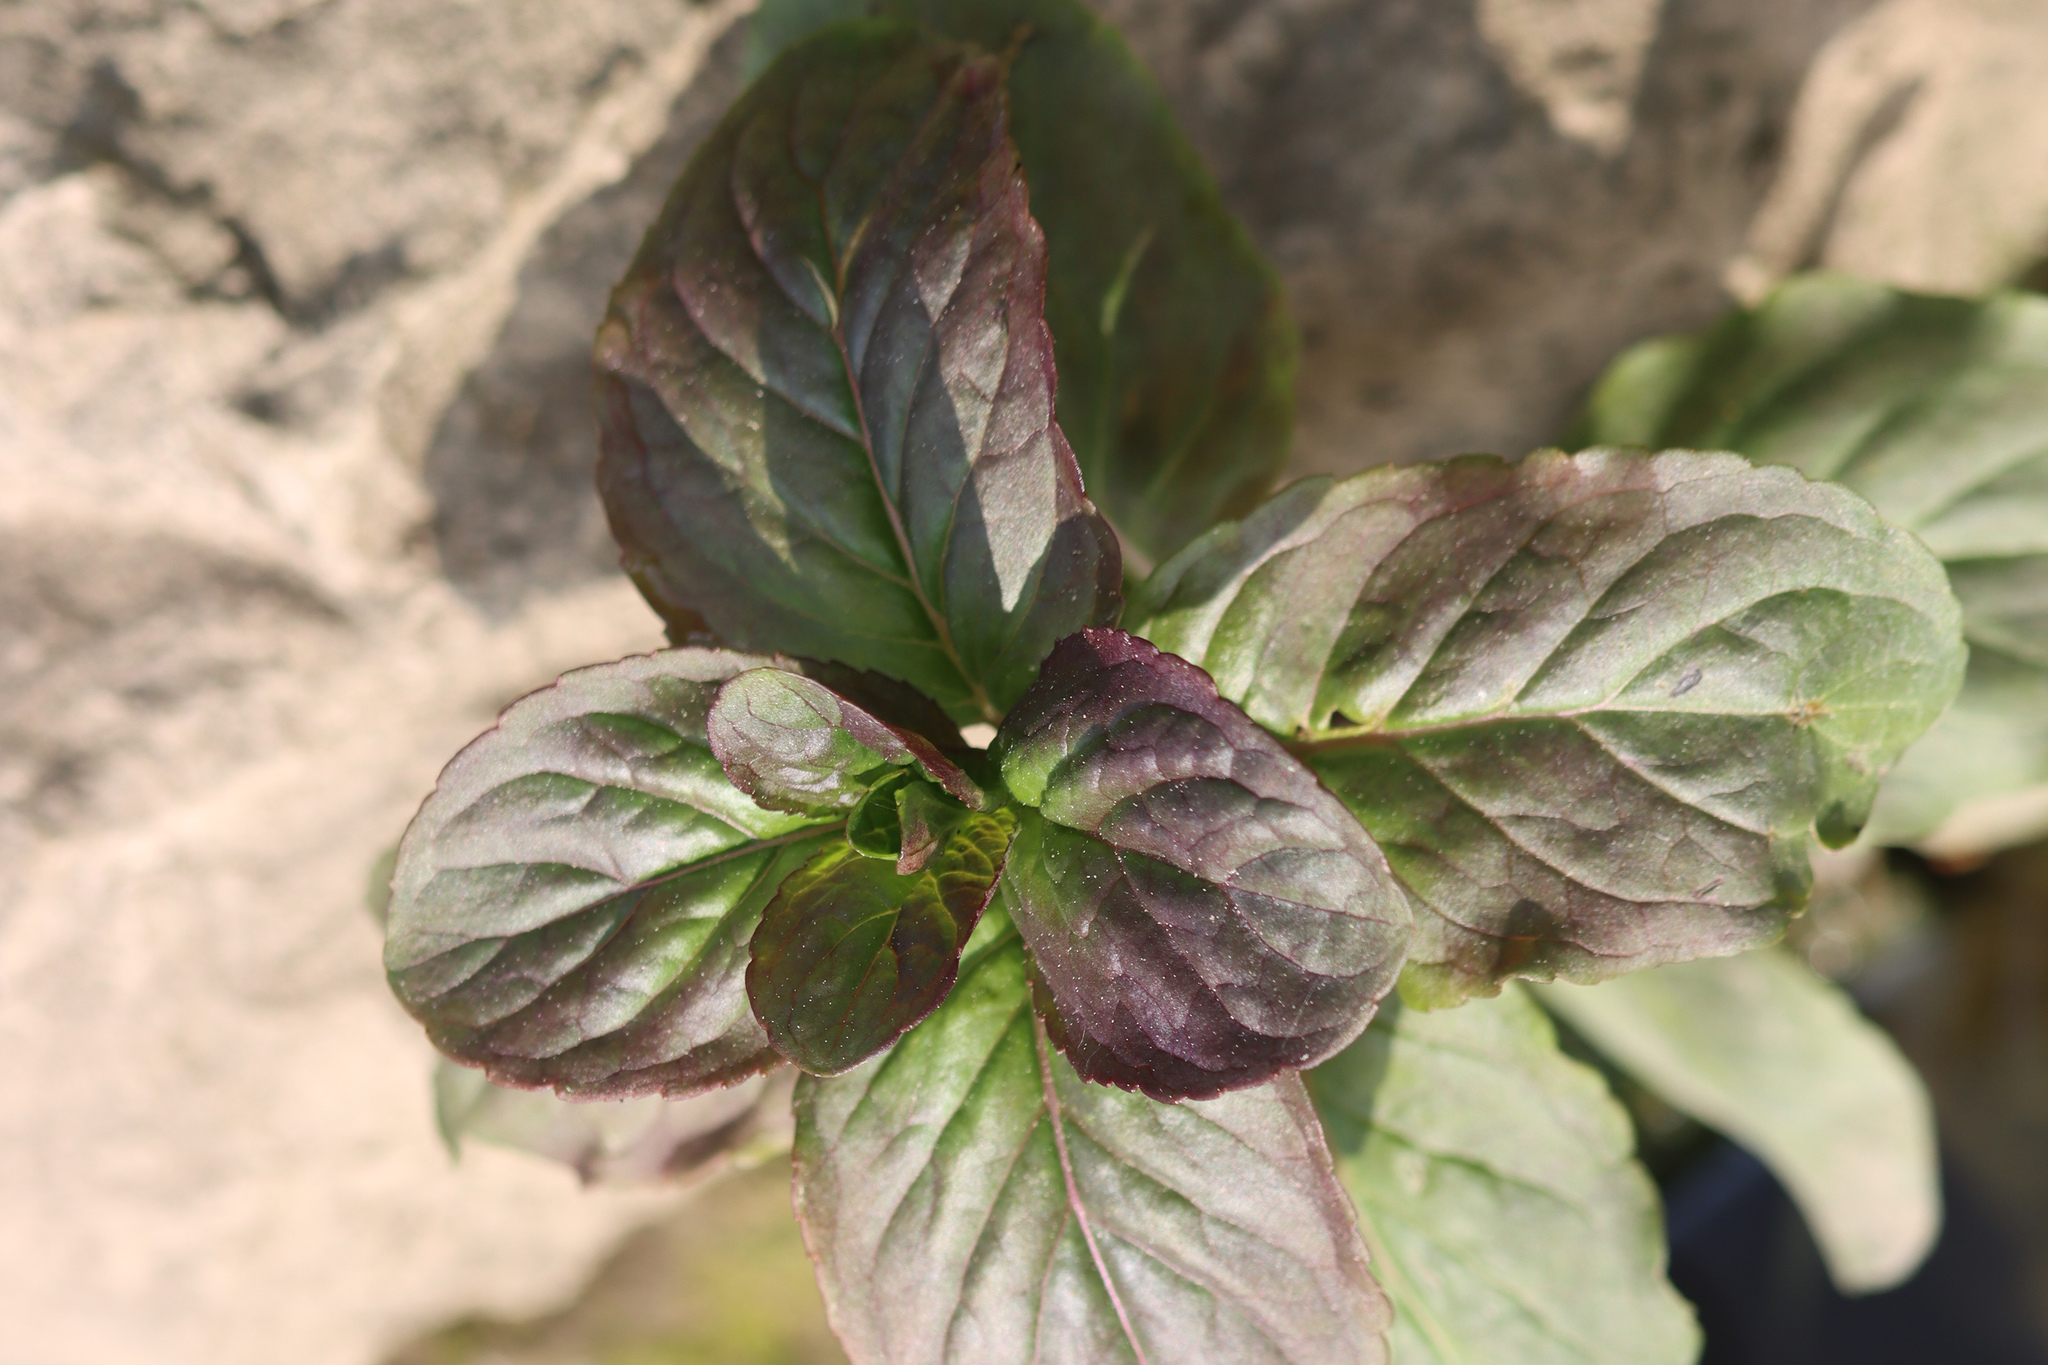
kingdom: Plantae
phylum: Tracheophyta
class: Magnoliopsida
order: Lamiales
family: Lamiaceae
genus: Mentha
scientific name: Mentha aquatica
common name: Water mint
